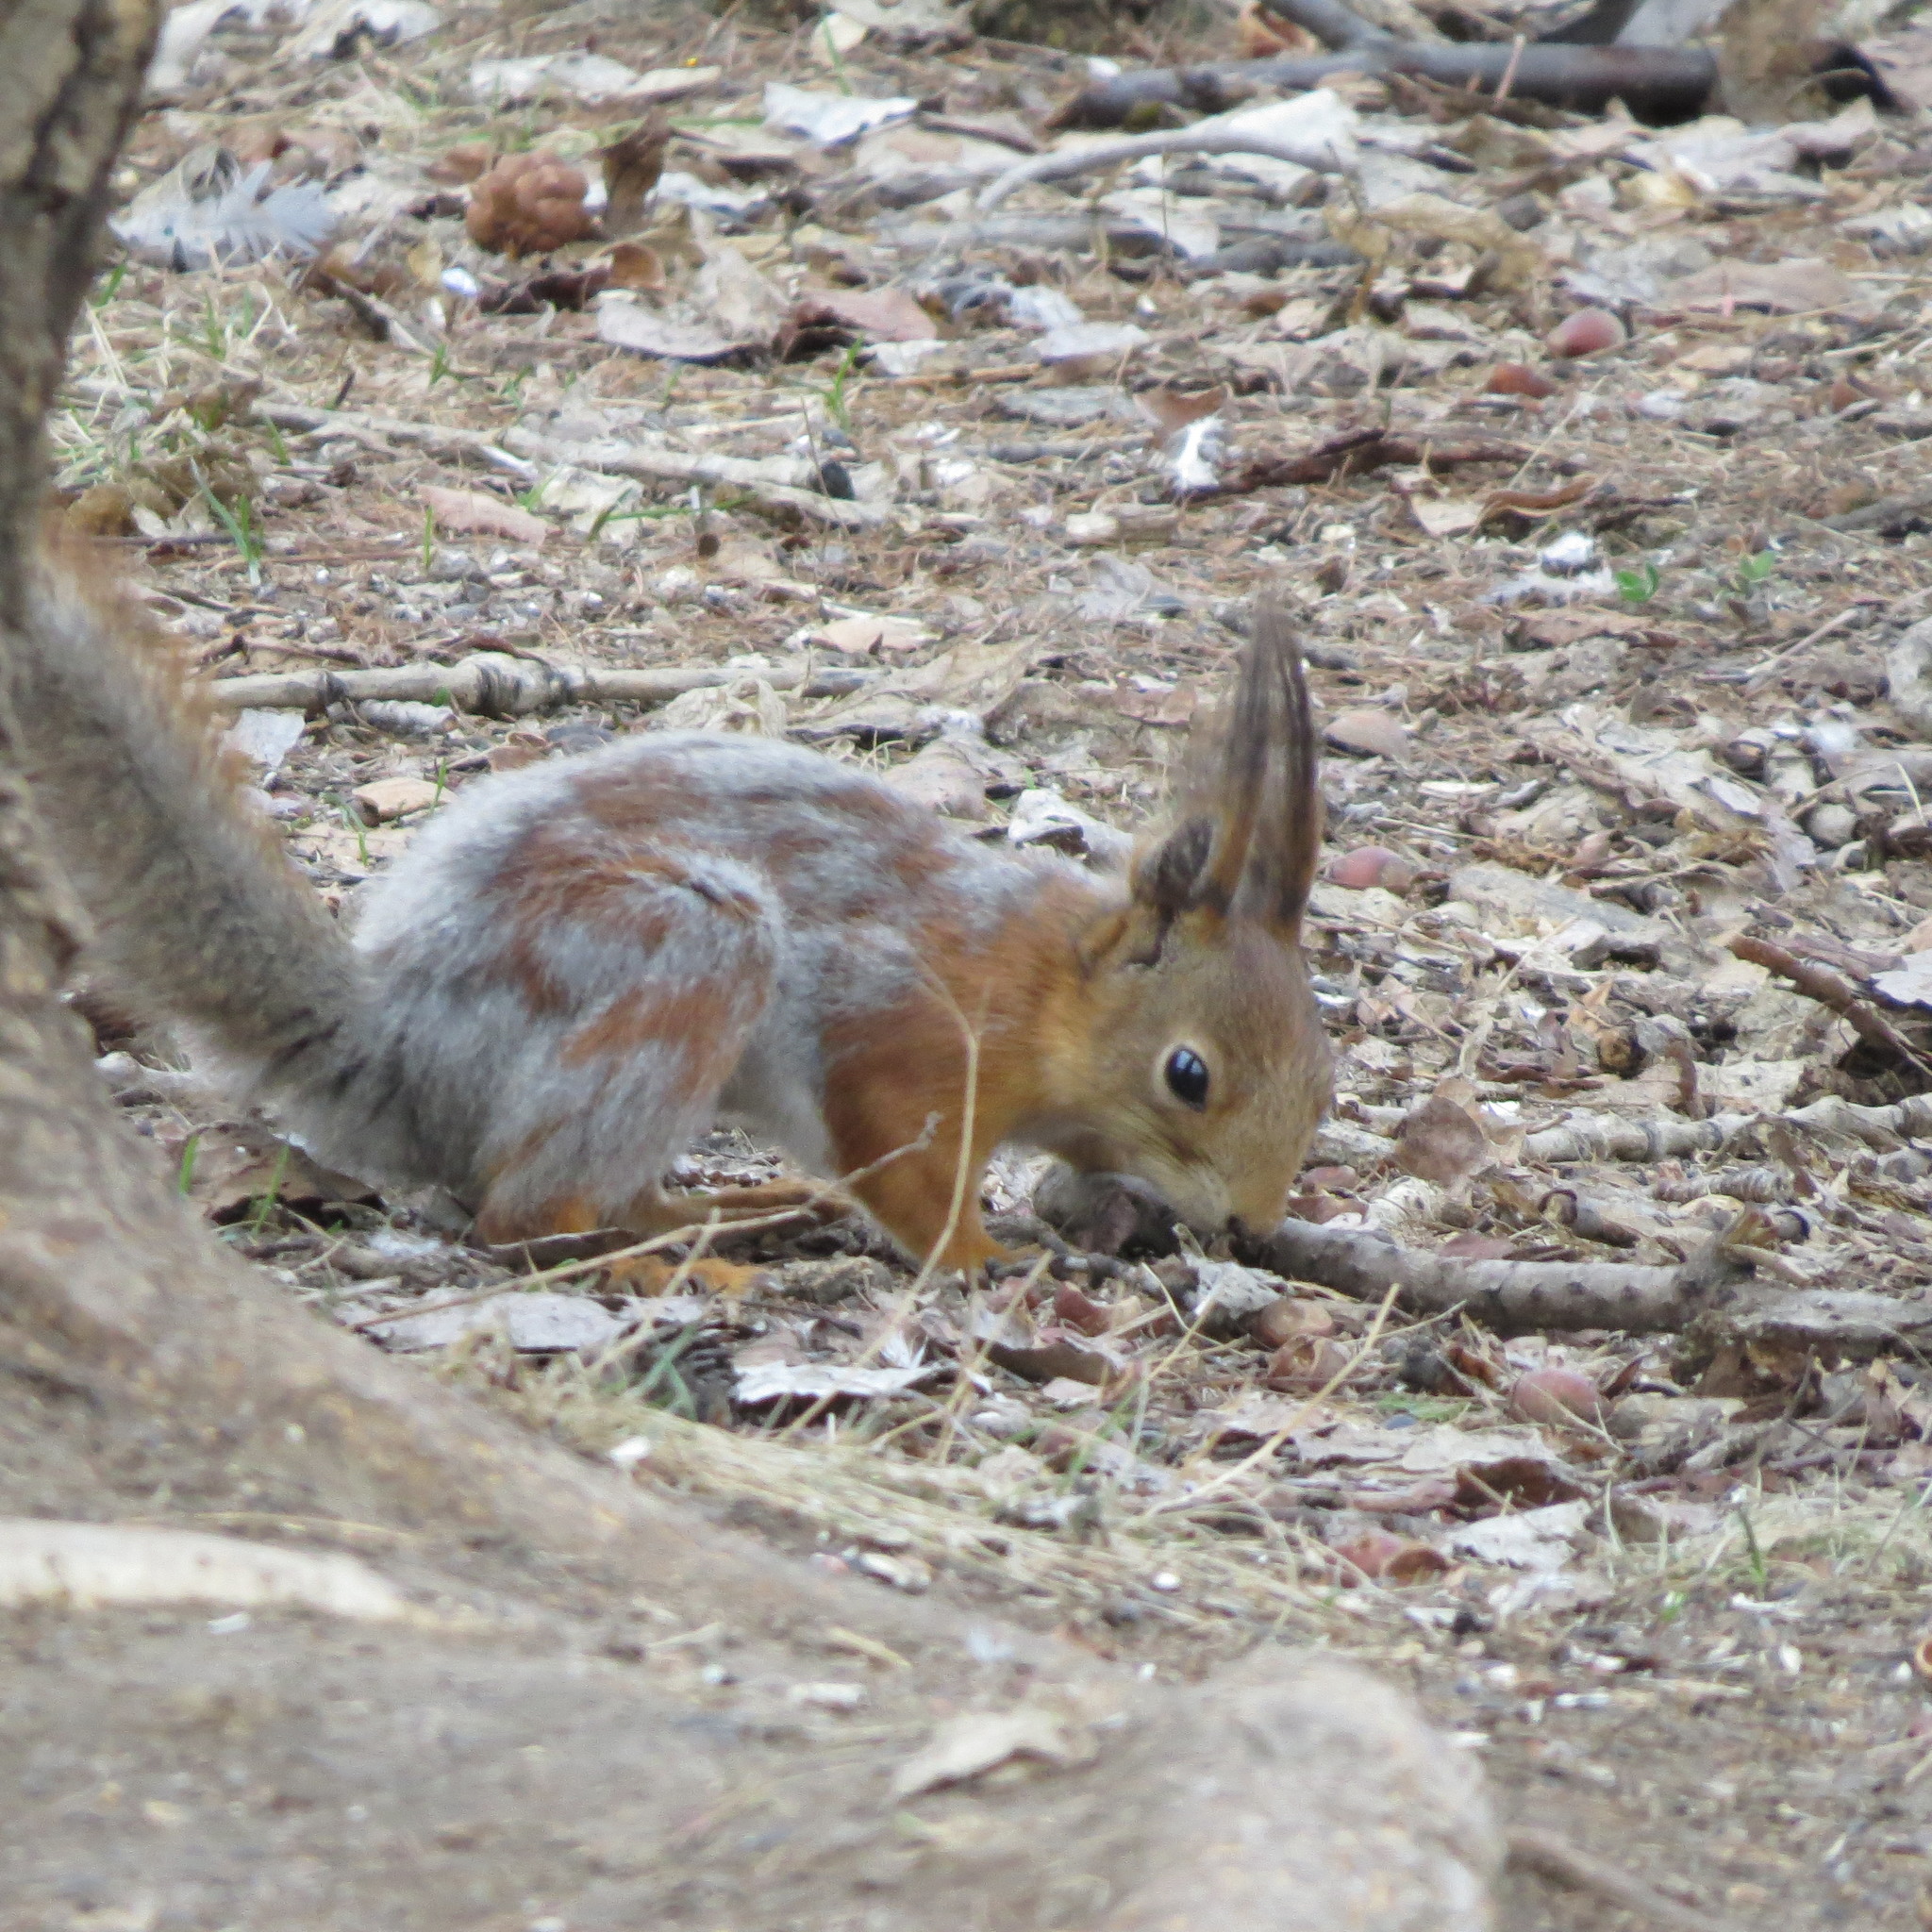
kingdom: Animalia
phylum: Chordata
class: Mammalia
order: Rodentia
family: Sciuridae
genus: Sciurus
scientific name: Sciurus vulgaris
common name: Eurasian red squirrel
